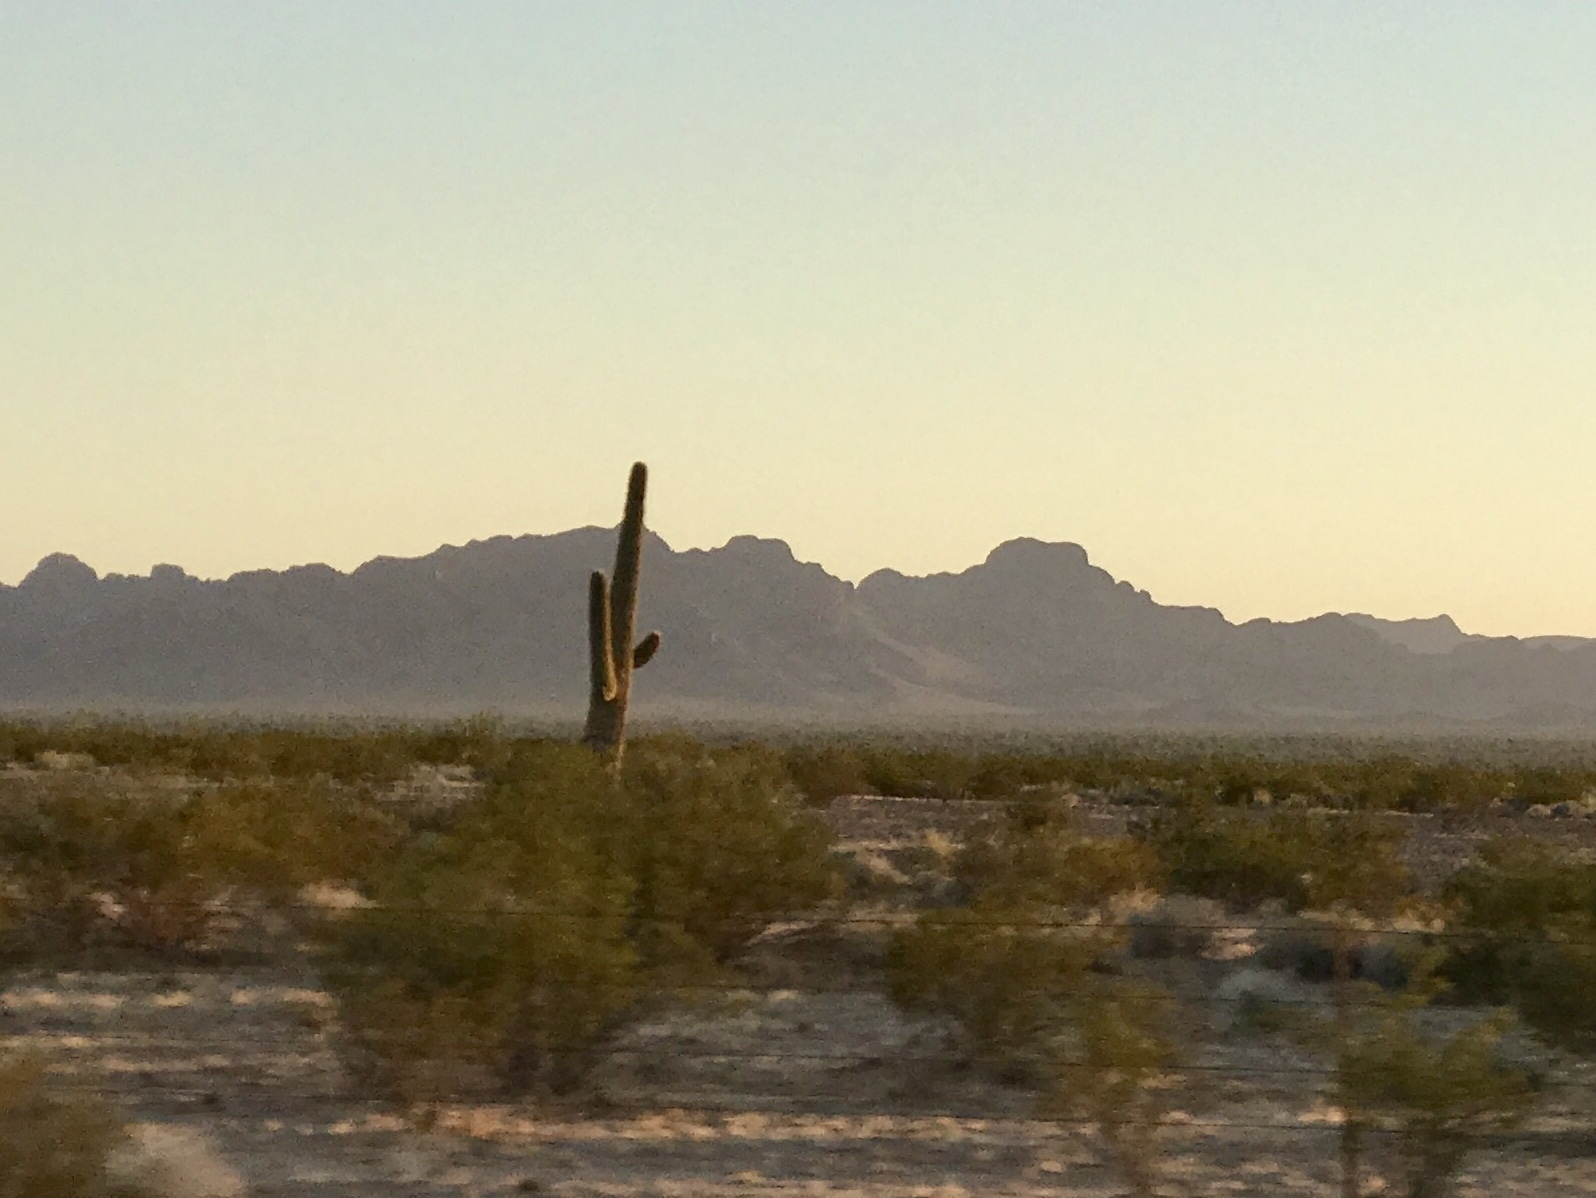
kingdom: Plantae
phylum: Tracheophyta
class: Magnoliopsida
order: Caryophyllales
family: Cactaceae
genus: Carnegiea
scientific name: Carnegiea gigantea
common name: Saguaro
